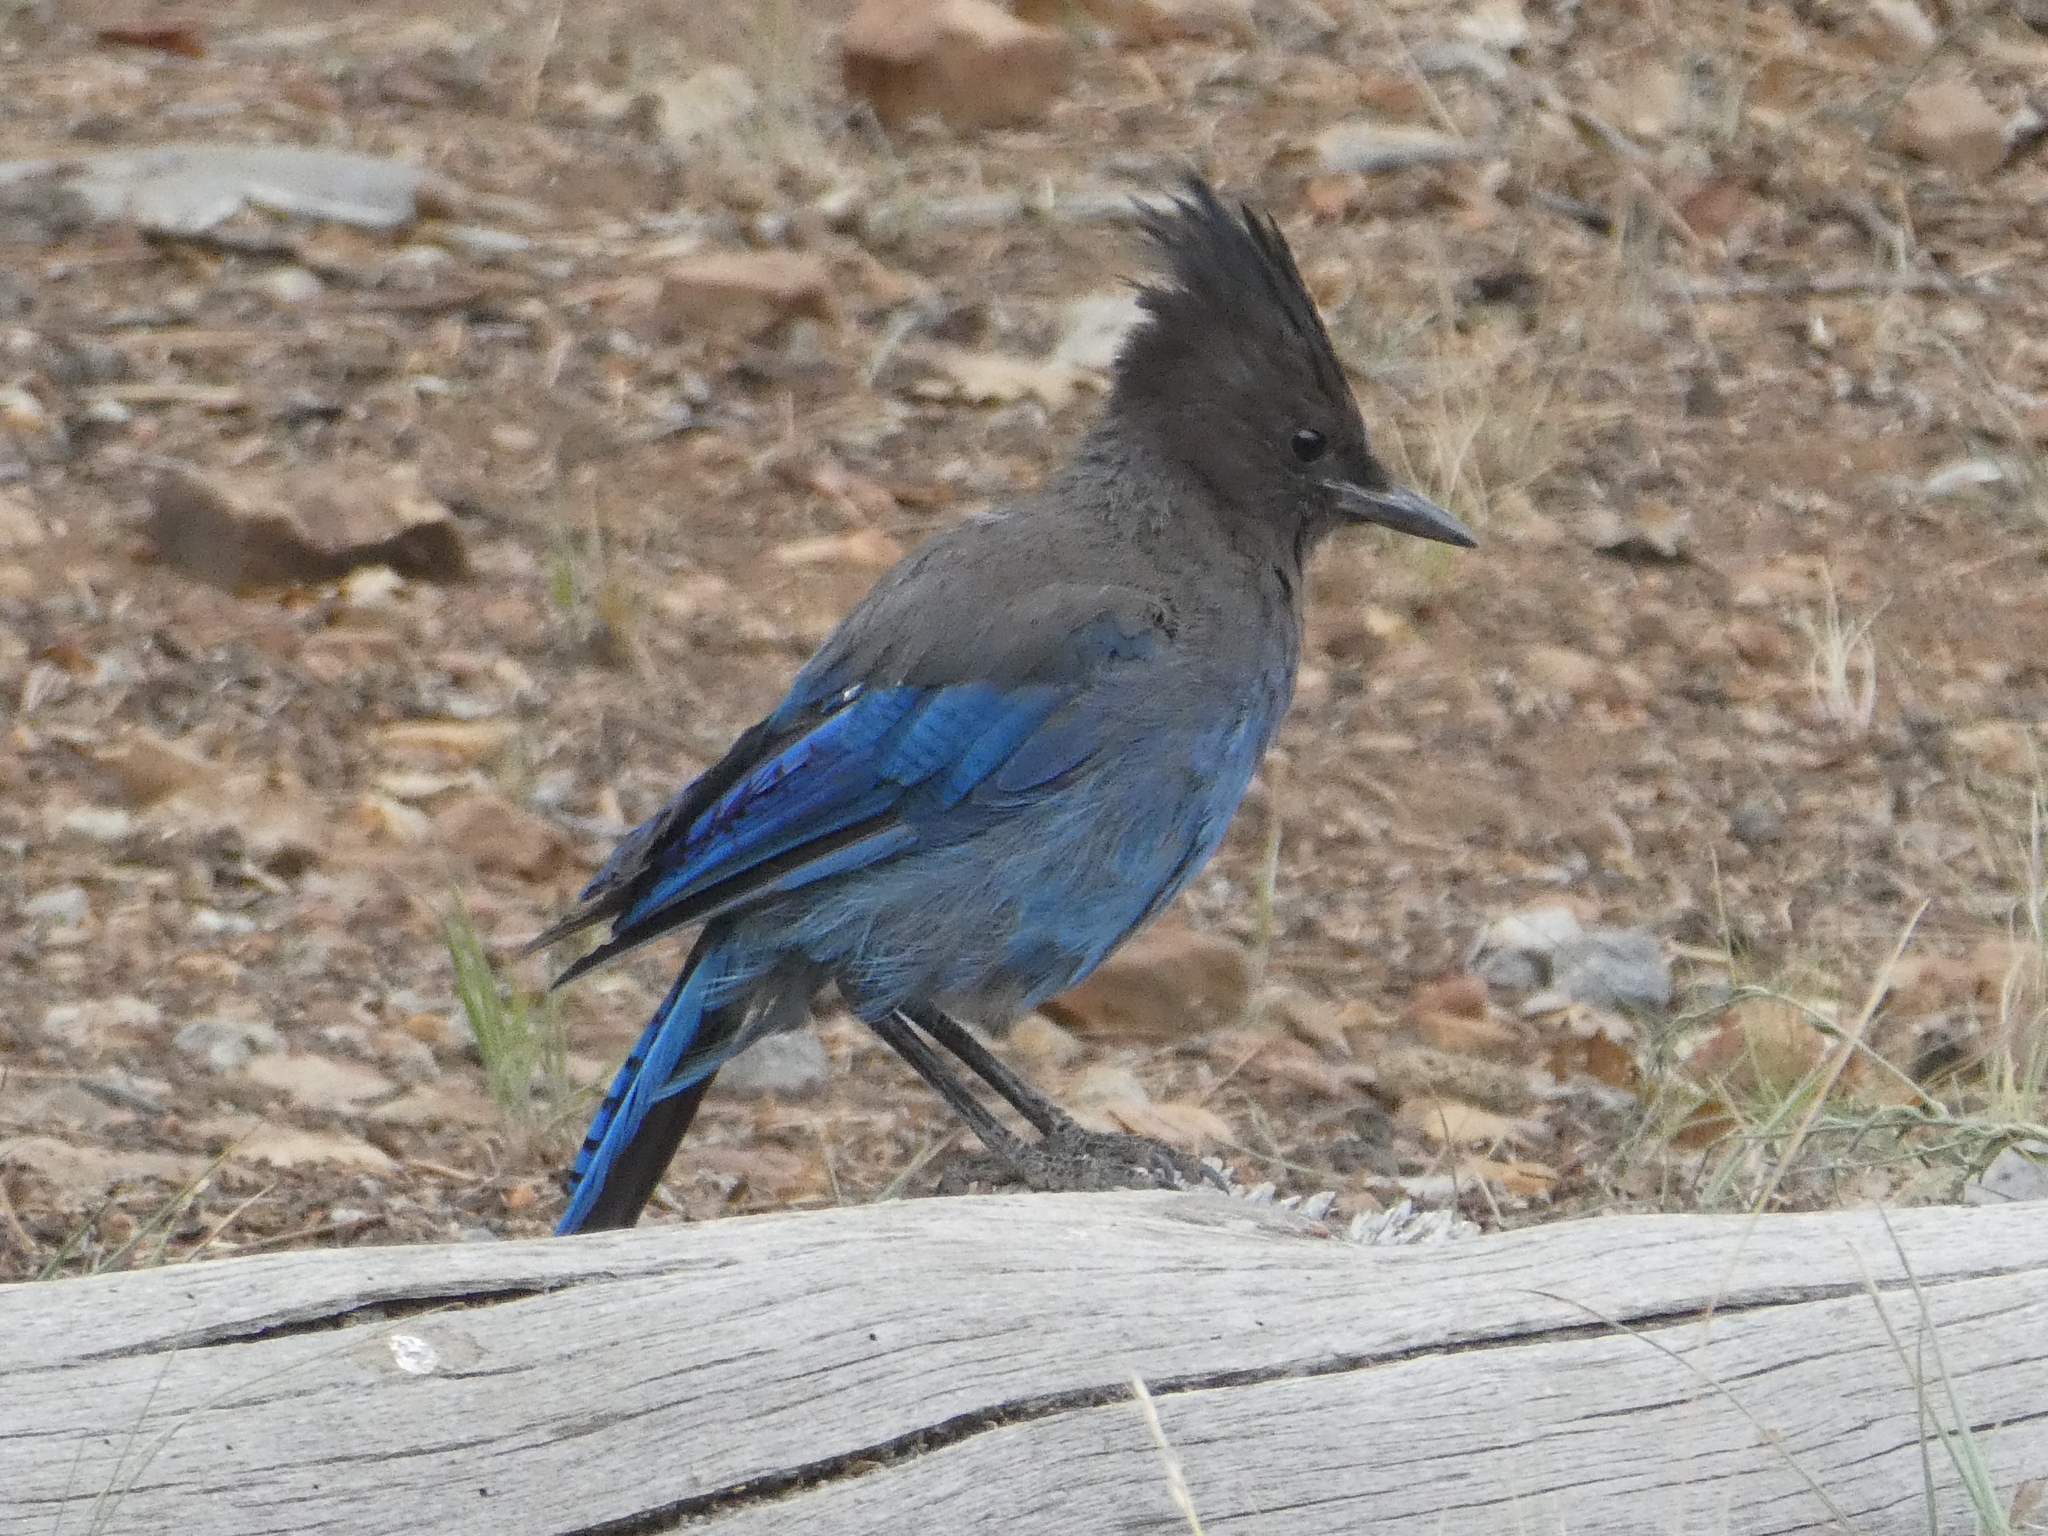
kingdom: Animalia
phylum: Chordata
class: Aves
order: Passeriformes
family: Corvidae
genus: Cyanocitta
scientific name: Cyanocitta stelleri
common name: Steller's jay
